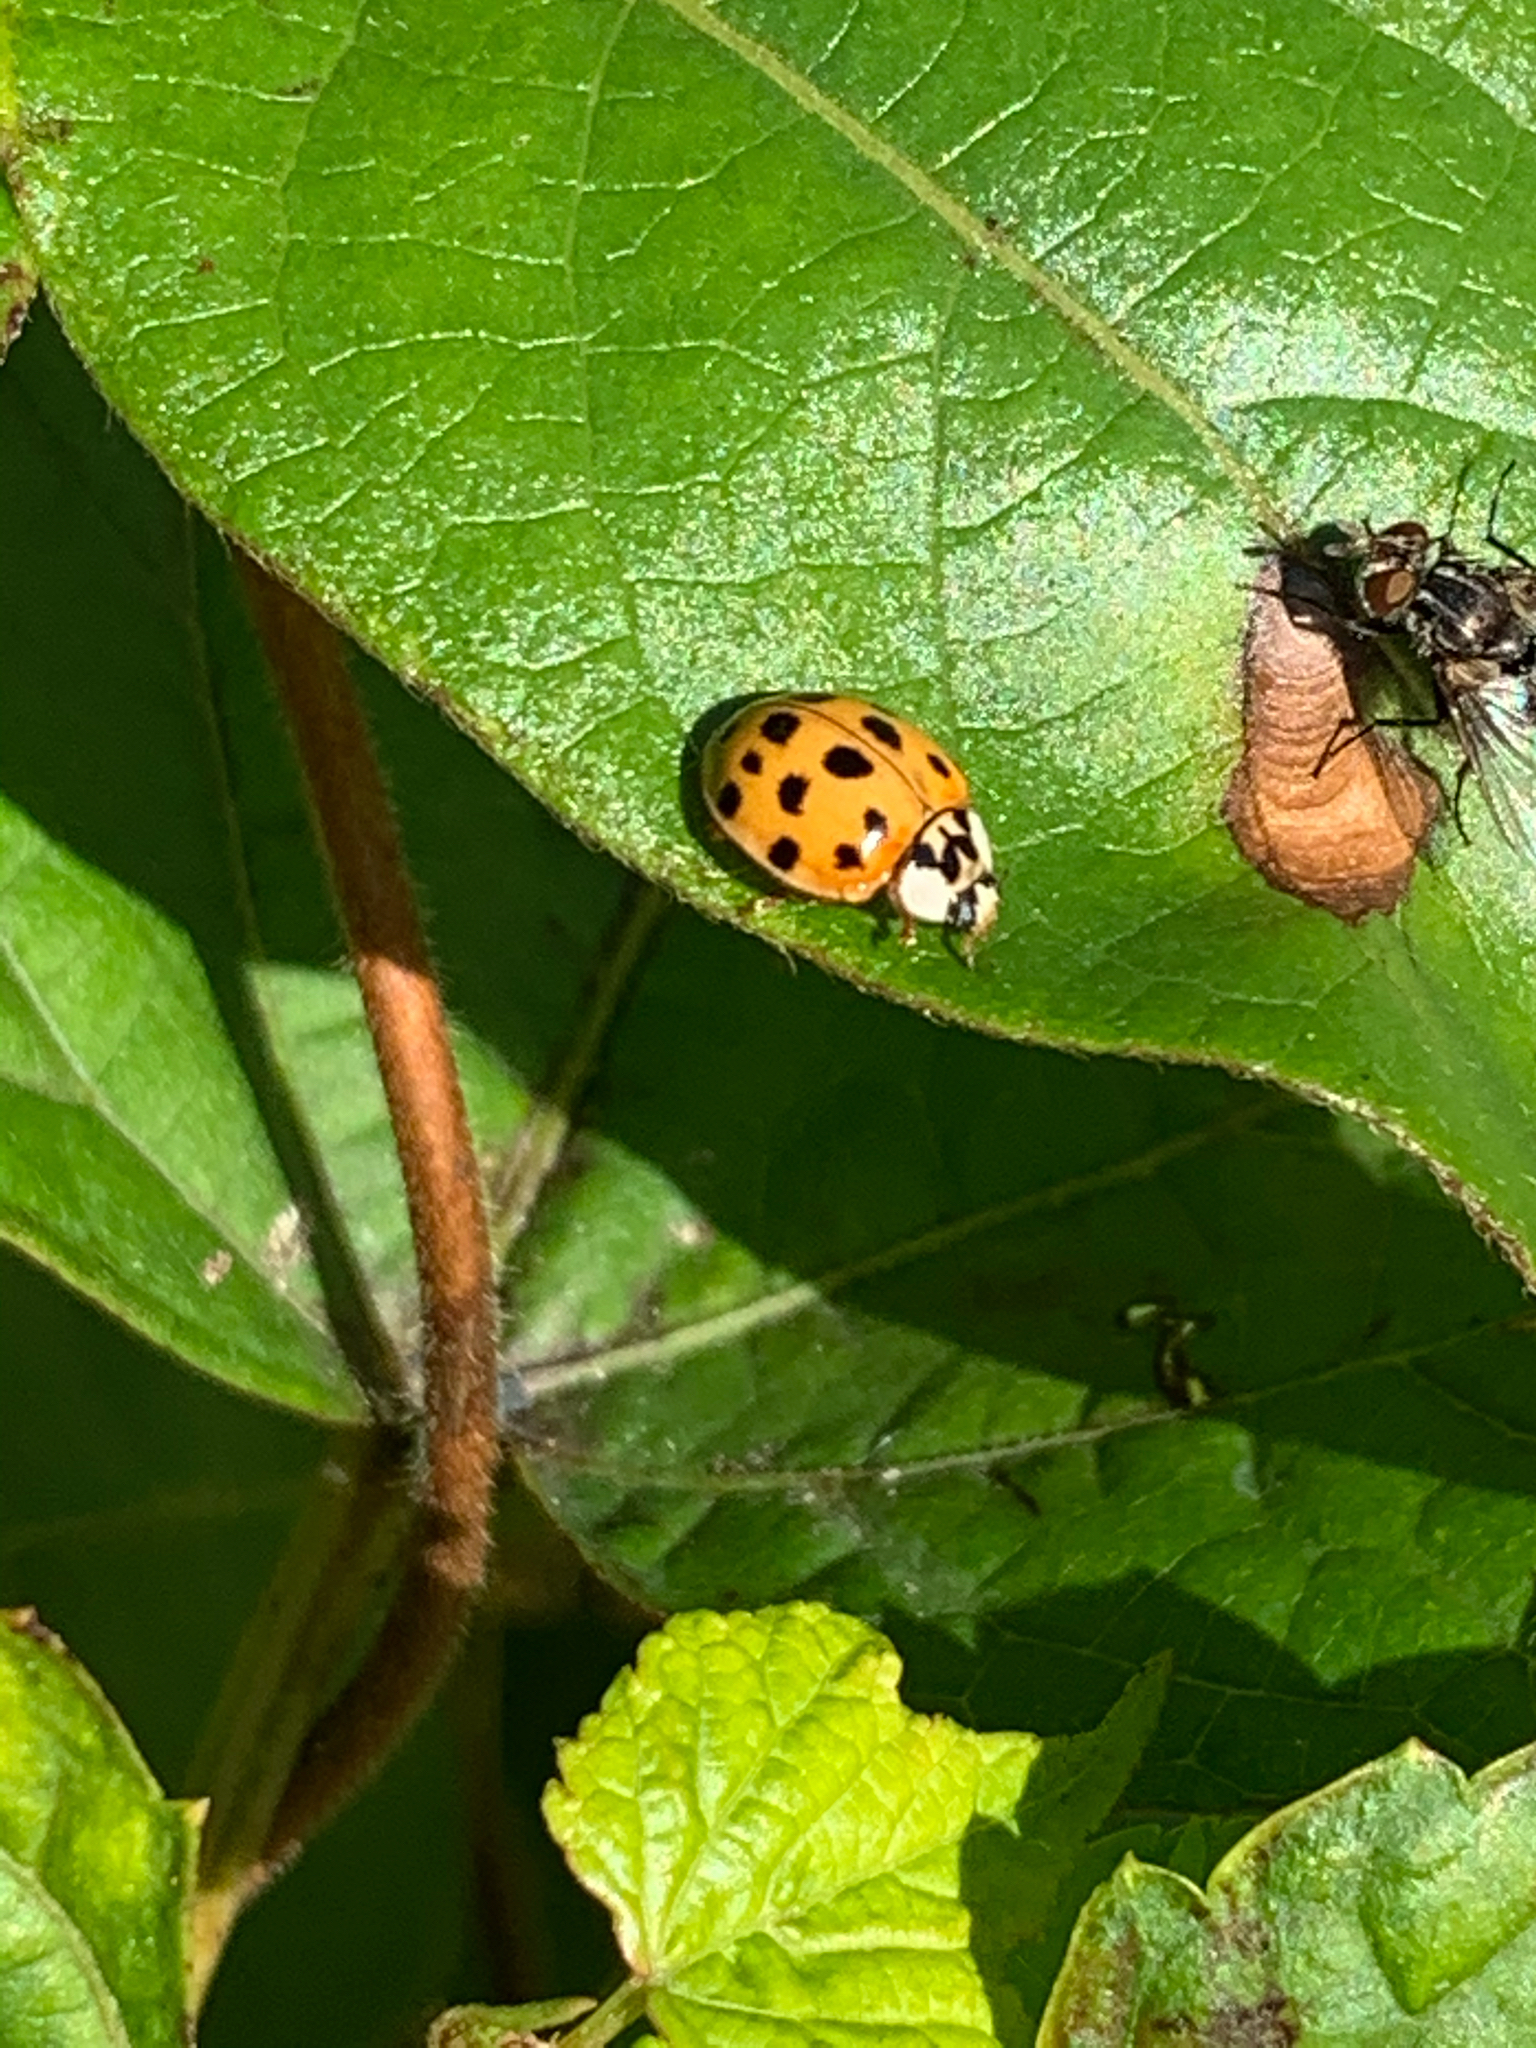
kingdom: Animalia
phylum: Arthropoda
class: Insecta
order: Coleoptera
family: Coccinellidae
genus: Harmonia
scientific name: Harmonia axyridis
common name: Harlequin ladybird
